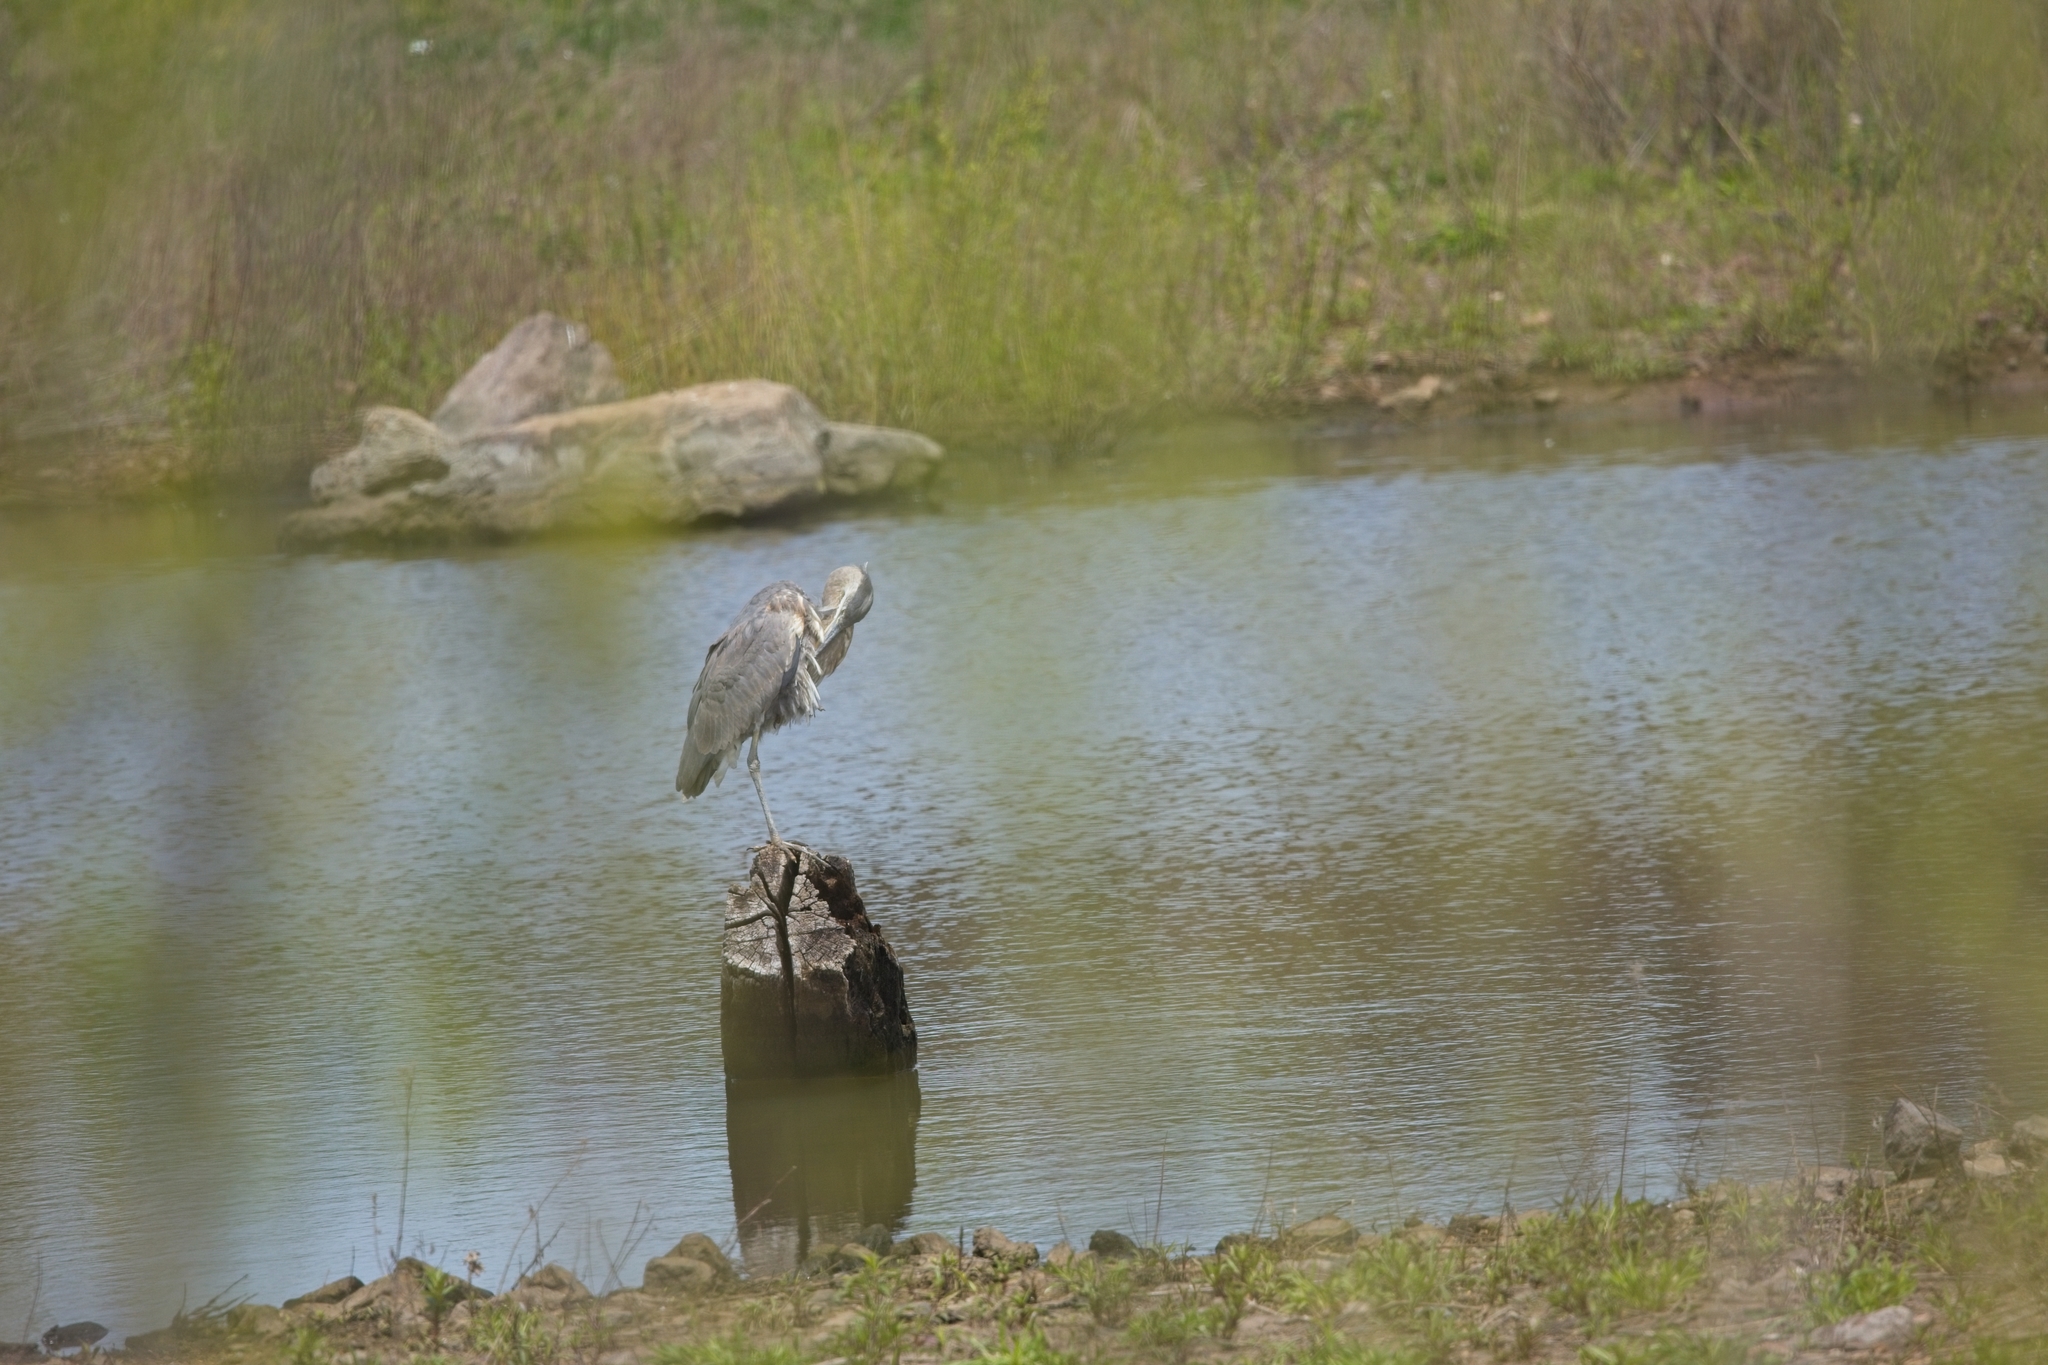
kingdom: Animalia
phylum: Chordata
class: Aves
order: Pelecaniformes
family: Ardeidae
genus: Ardea
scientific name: Ardea herodias
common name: Great blue heron
